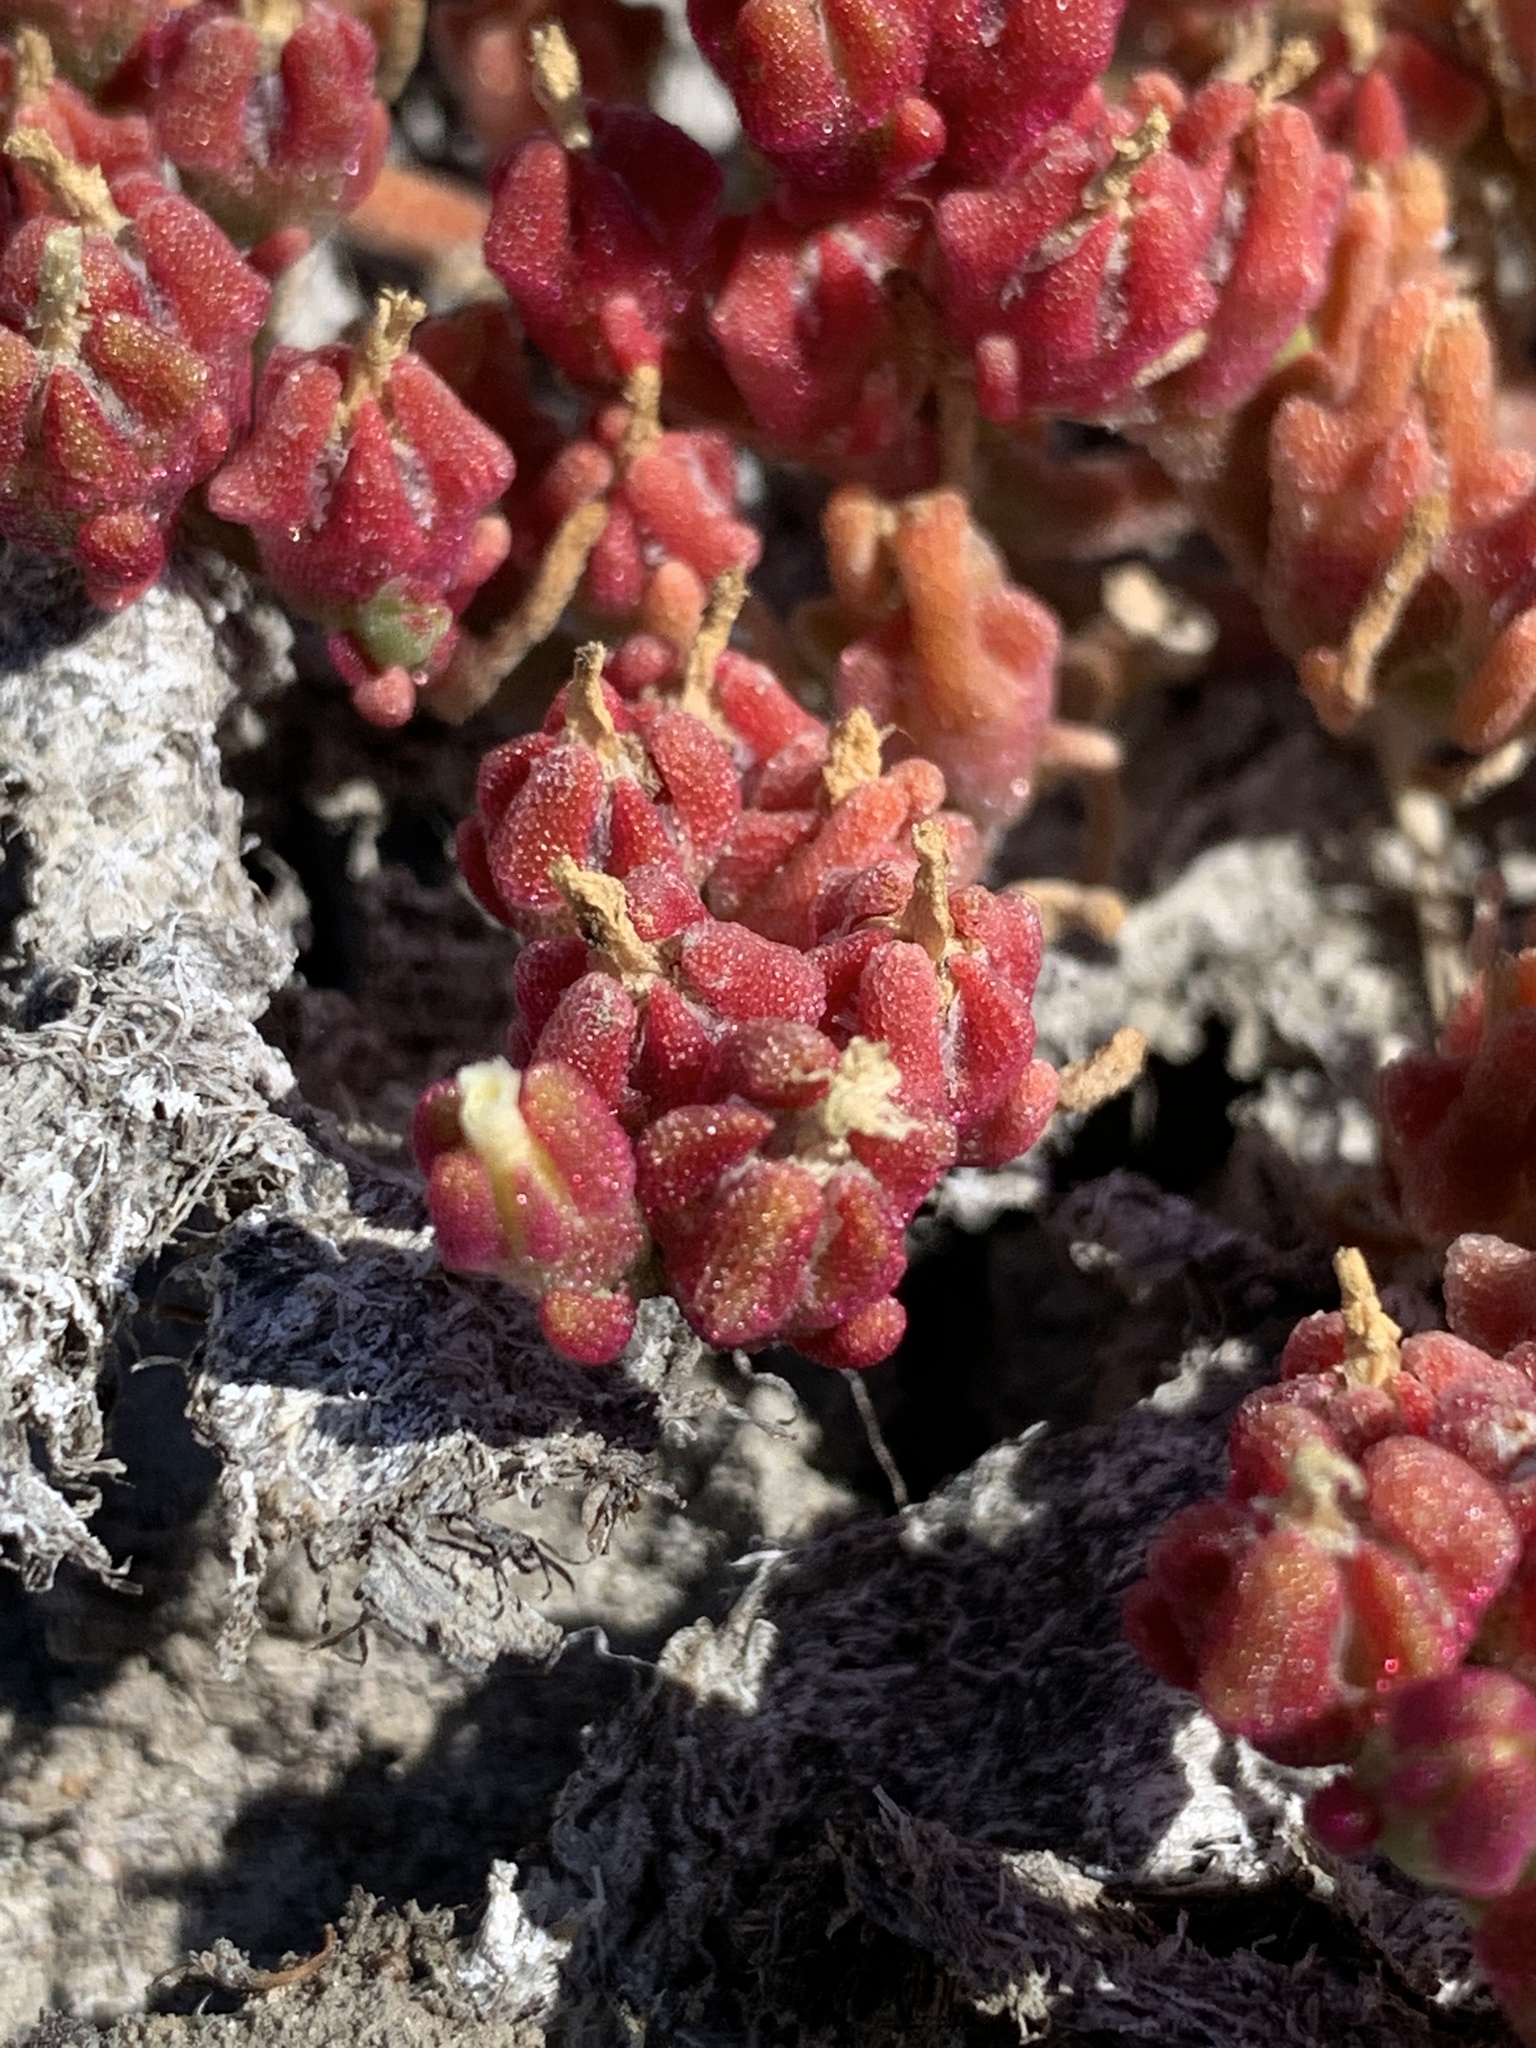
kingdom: Plantae
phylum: Tracheophyta
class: Magnoliopsida
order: Caryophyllales
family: Aizoaceae
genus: Mesembryanthemum
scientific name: Mesembryanthemum nodiflorum
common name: Slenderleaf iceplant
